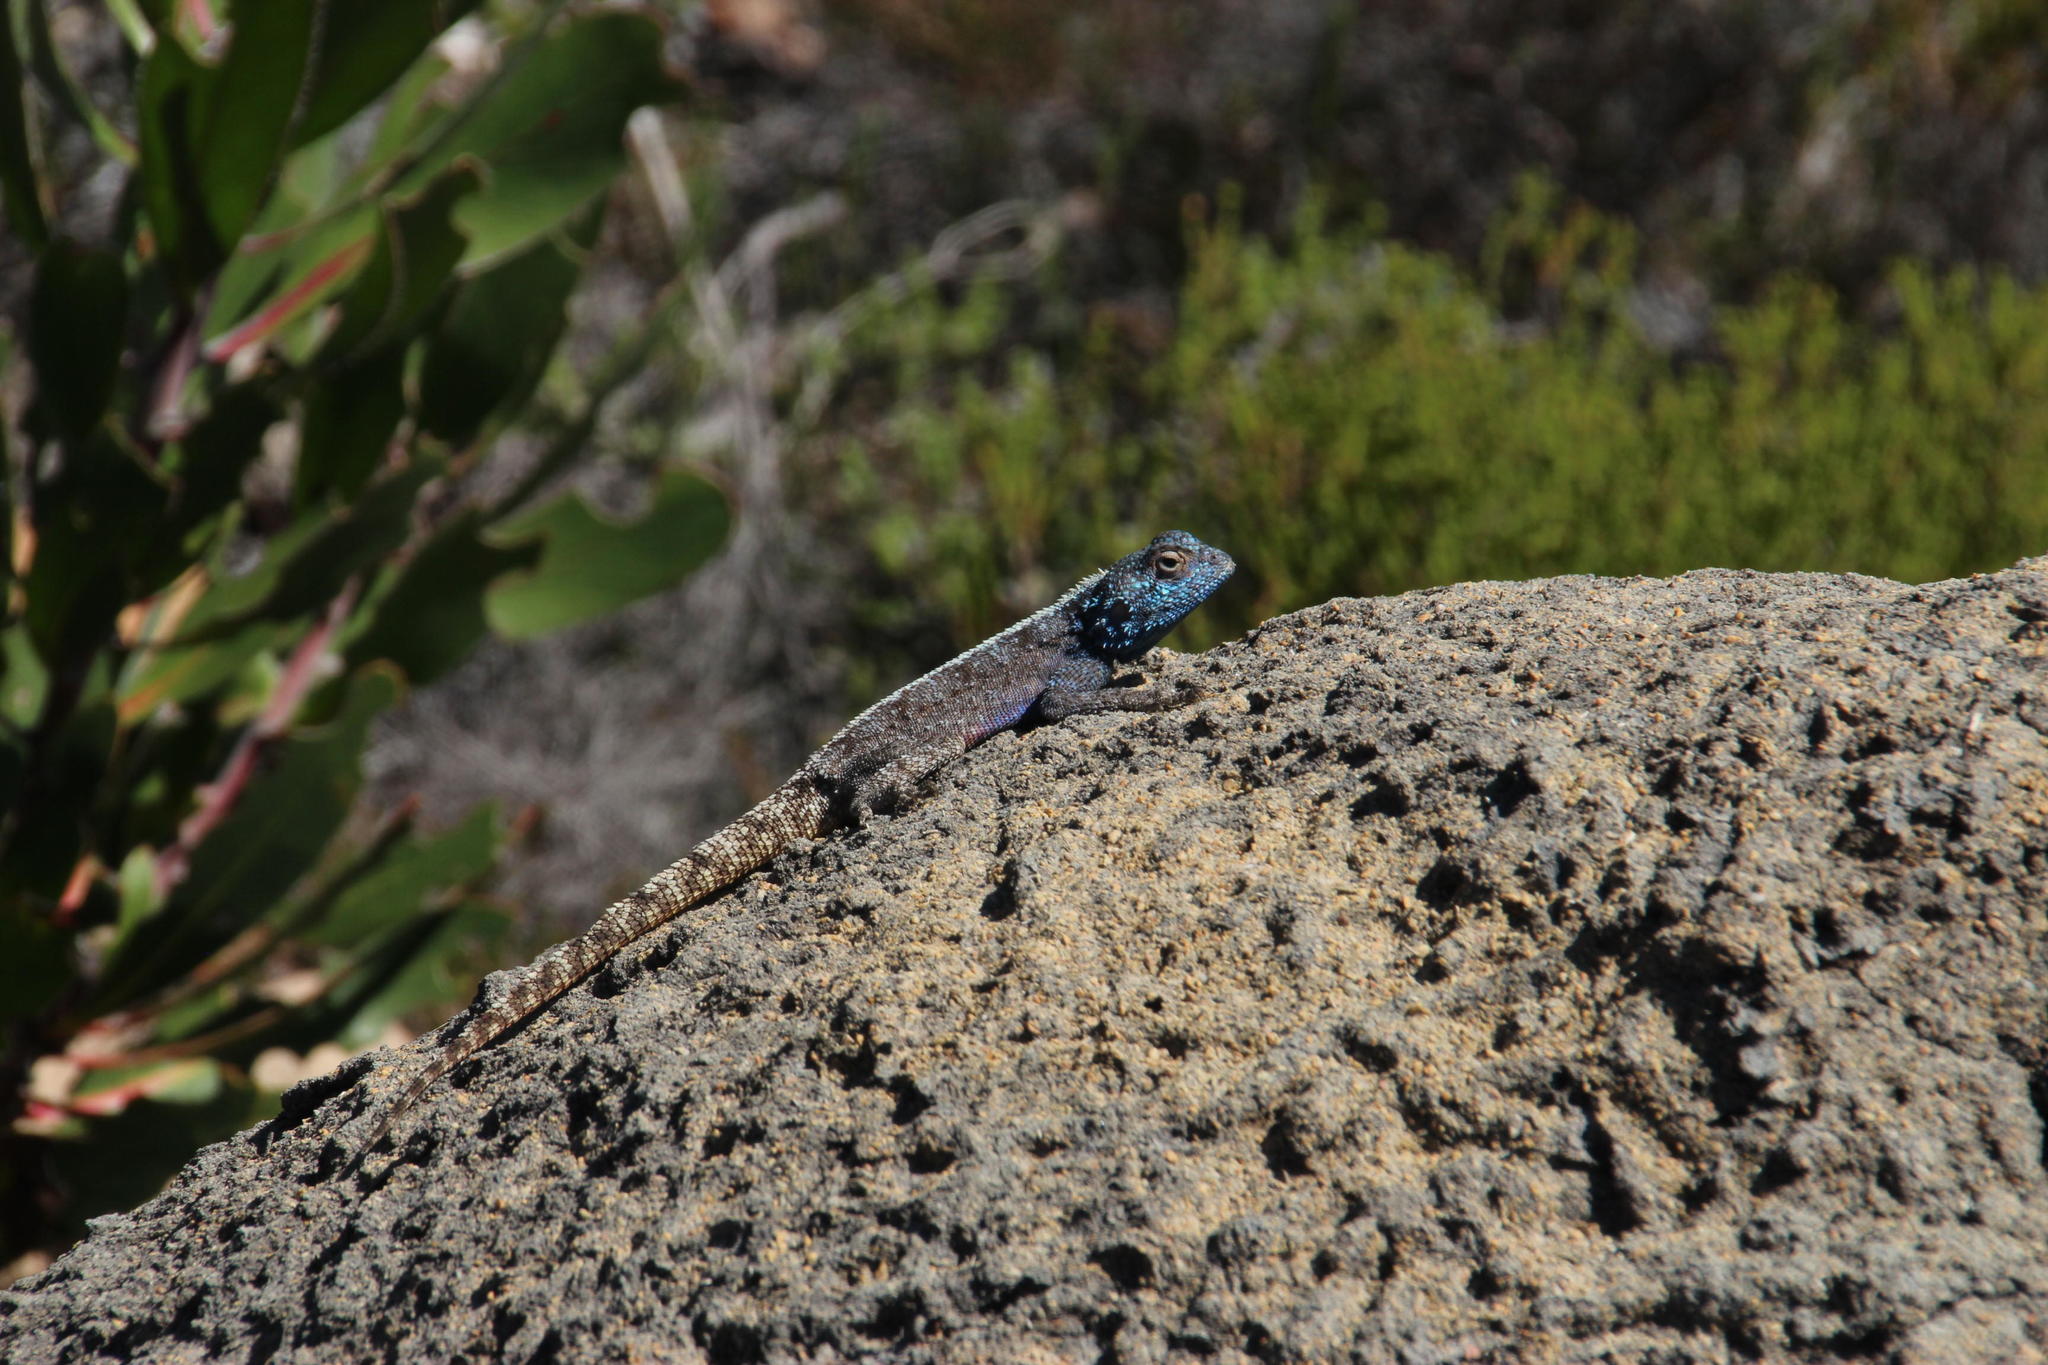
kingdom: Animalia
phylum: Chordata
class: Squamata
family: Agamidae
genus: Agama
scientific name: Agama atra
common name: Southern african rock agama
